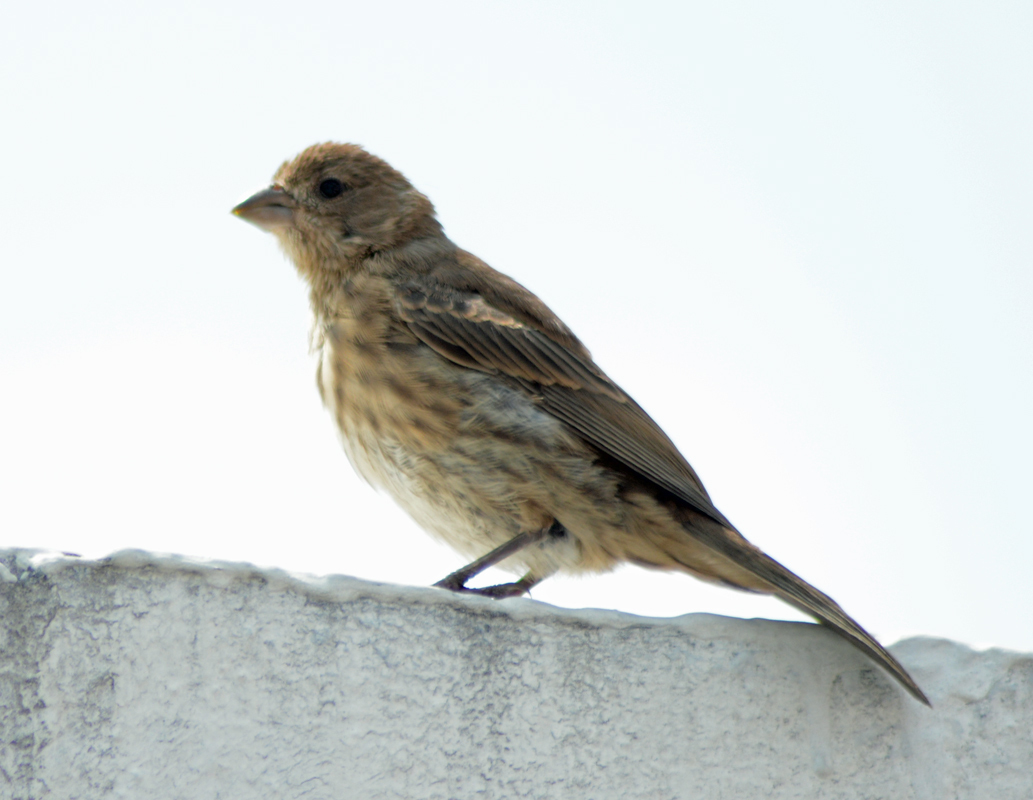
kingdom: Animalia
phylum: Chordata
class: Aves
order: Passeriformes
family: Fringillidae
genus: Haemorhous
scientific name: Haemorhous mexicanus
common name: House finch
